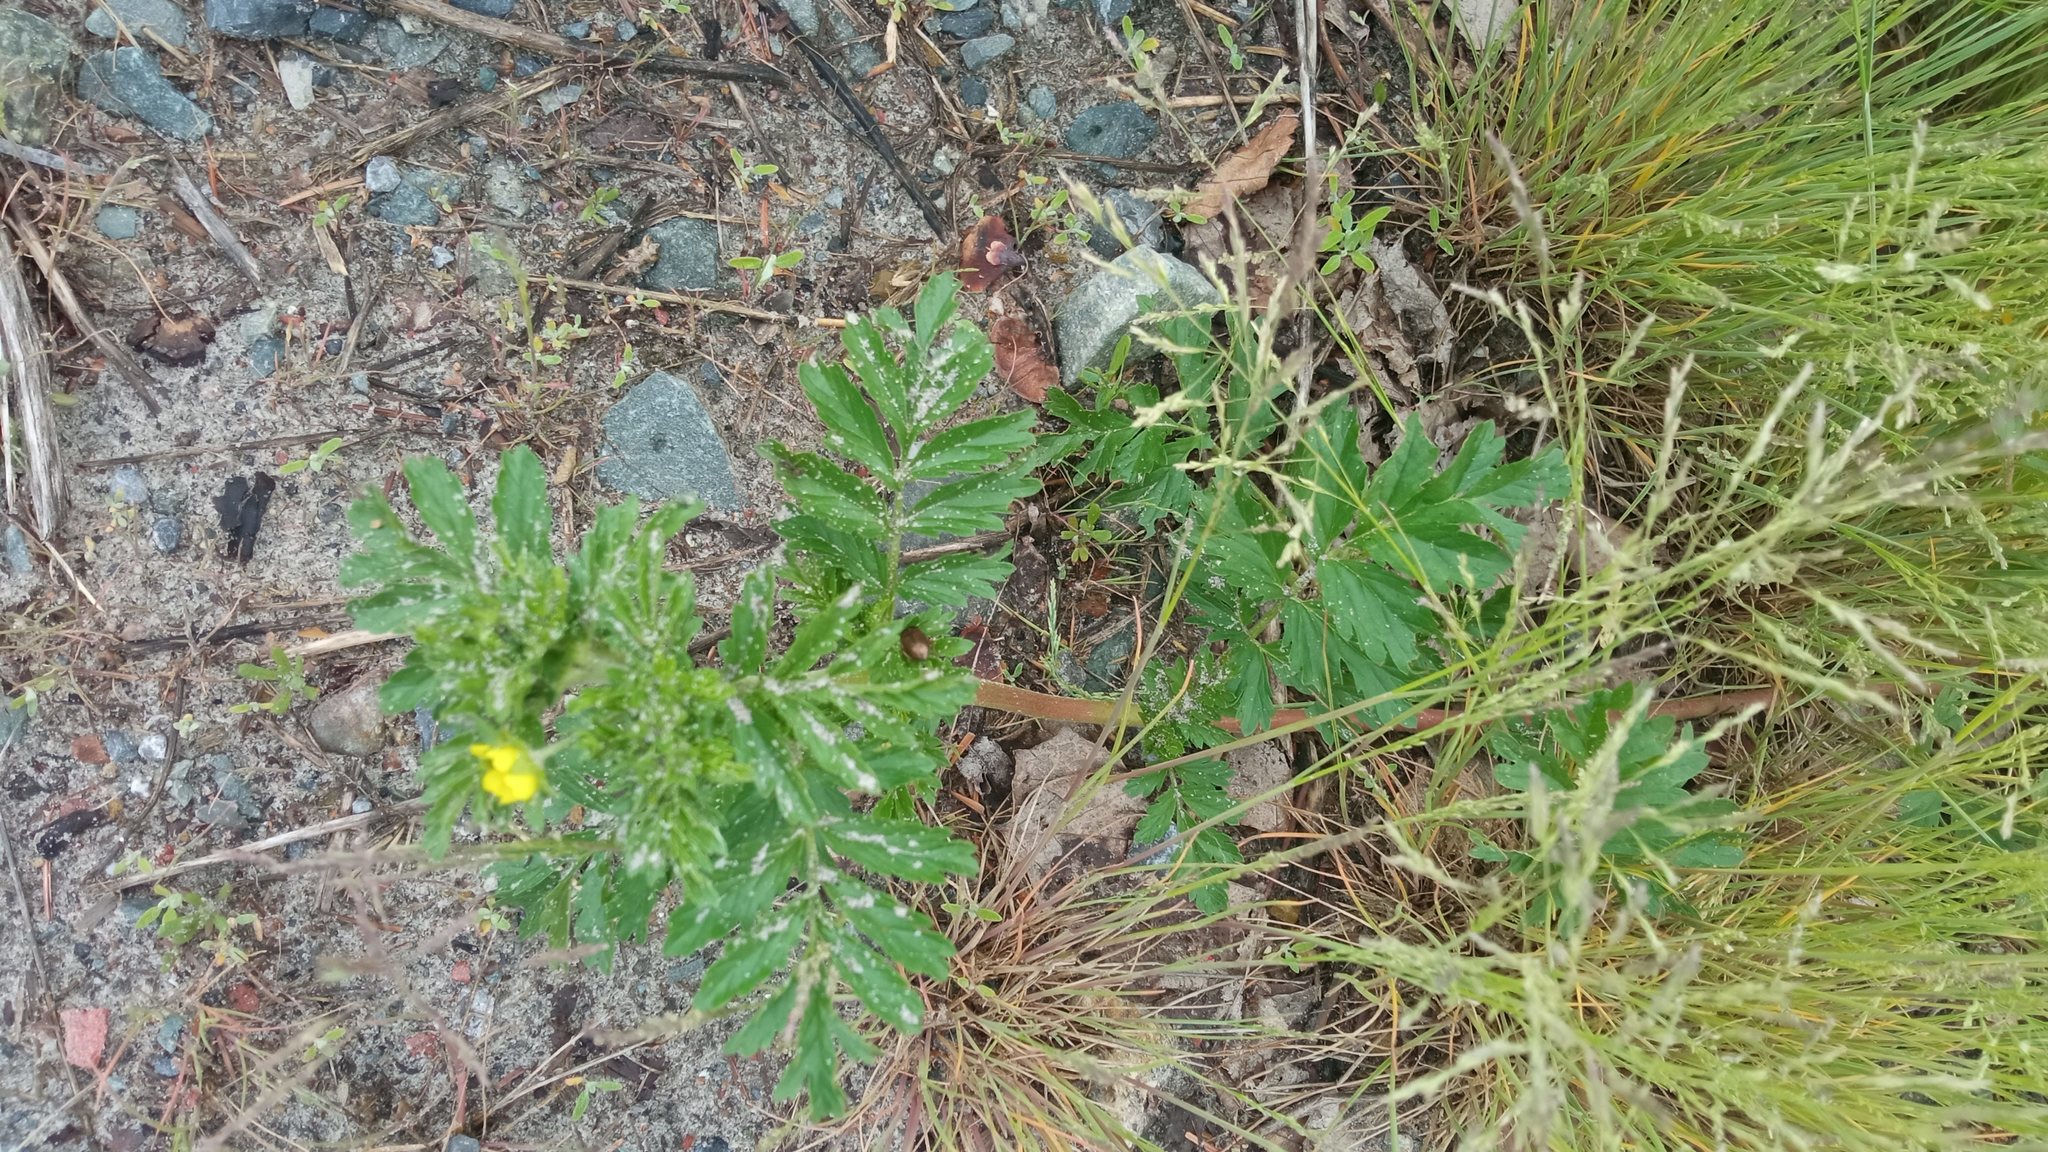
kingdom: Plantae
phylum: Tracheophyta
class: Magnoliopsida
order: Rosales
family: Rosaceae
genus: Potentilla
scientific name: Potentilla supina
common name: Prostrate cinquefoil
